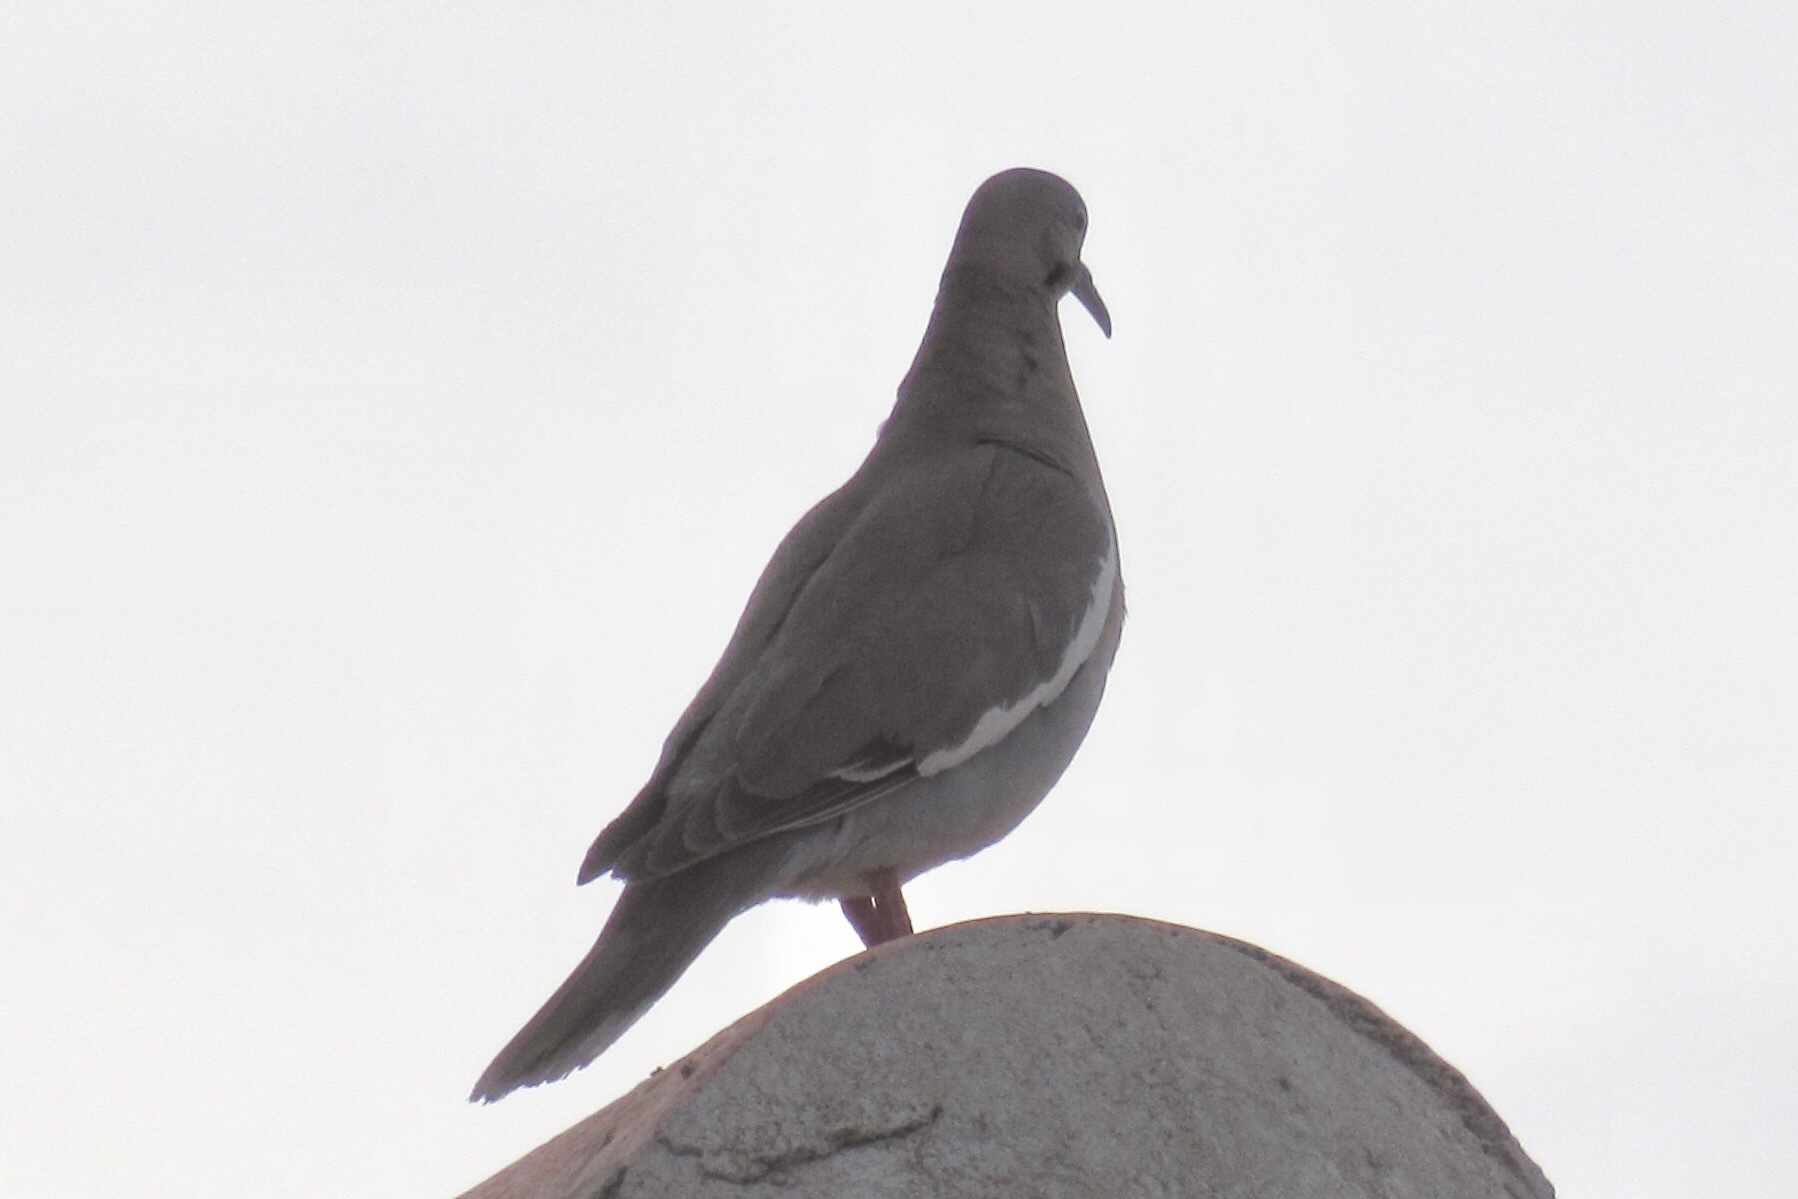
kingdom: Animalia
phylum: Chordata
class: Aves
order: Columbiformes
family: Columbidae
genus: Zenaida
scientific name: Zenaida asiatica
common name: White-winged dove
